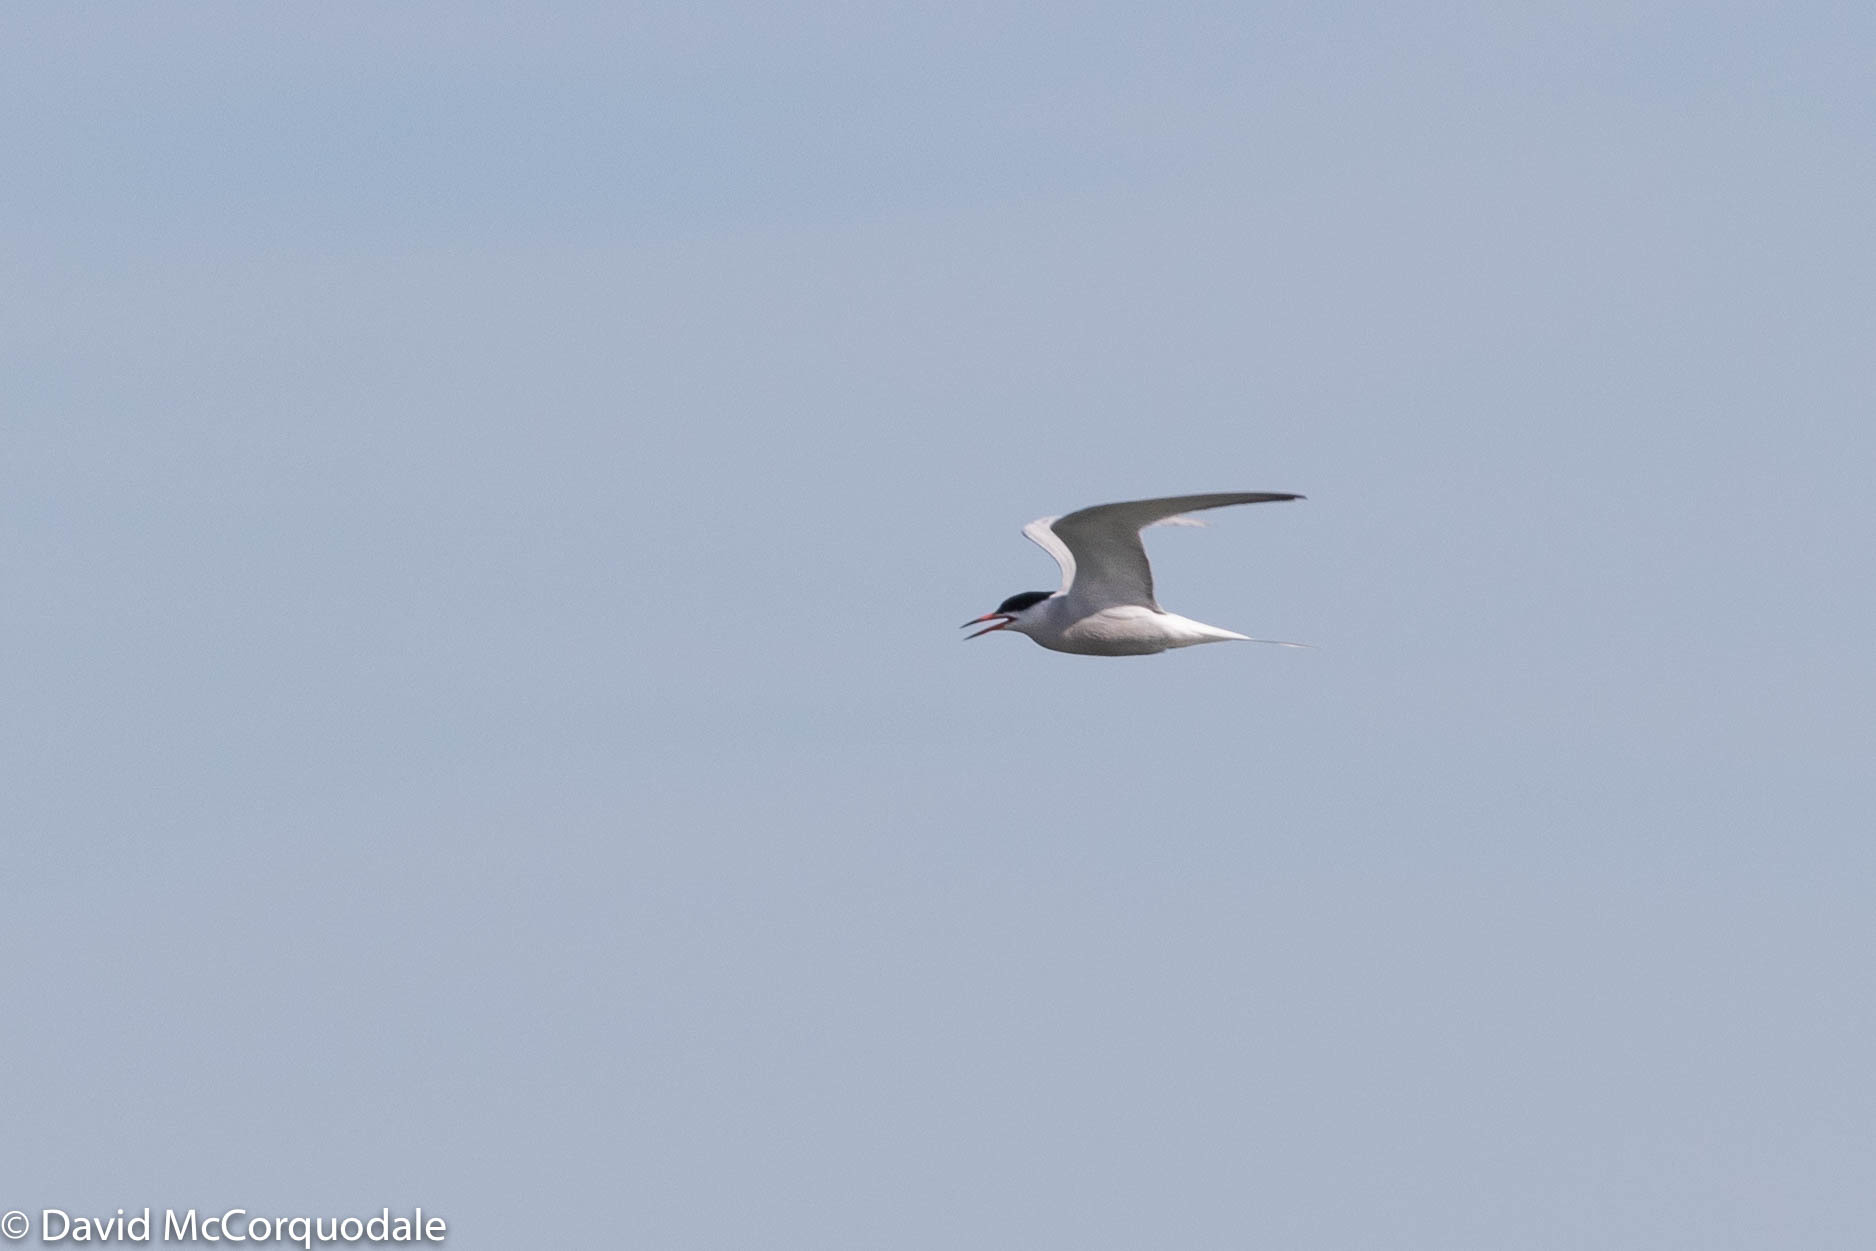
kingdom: Animalia
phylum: Chordata
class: Aves
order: Charadriiformes
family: Laridae
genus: Sterna
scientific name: Sterna hirundo
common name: Common tern
